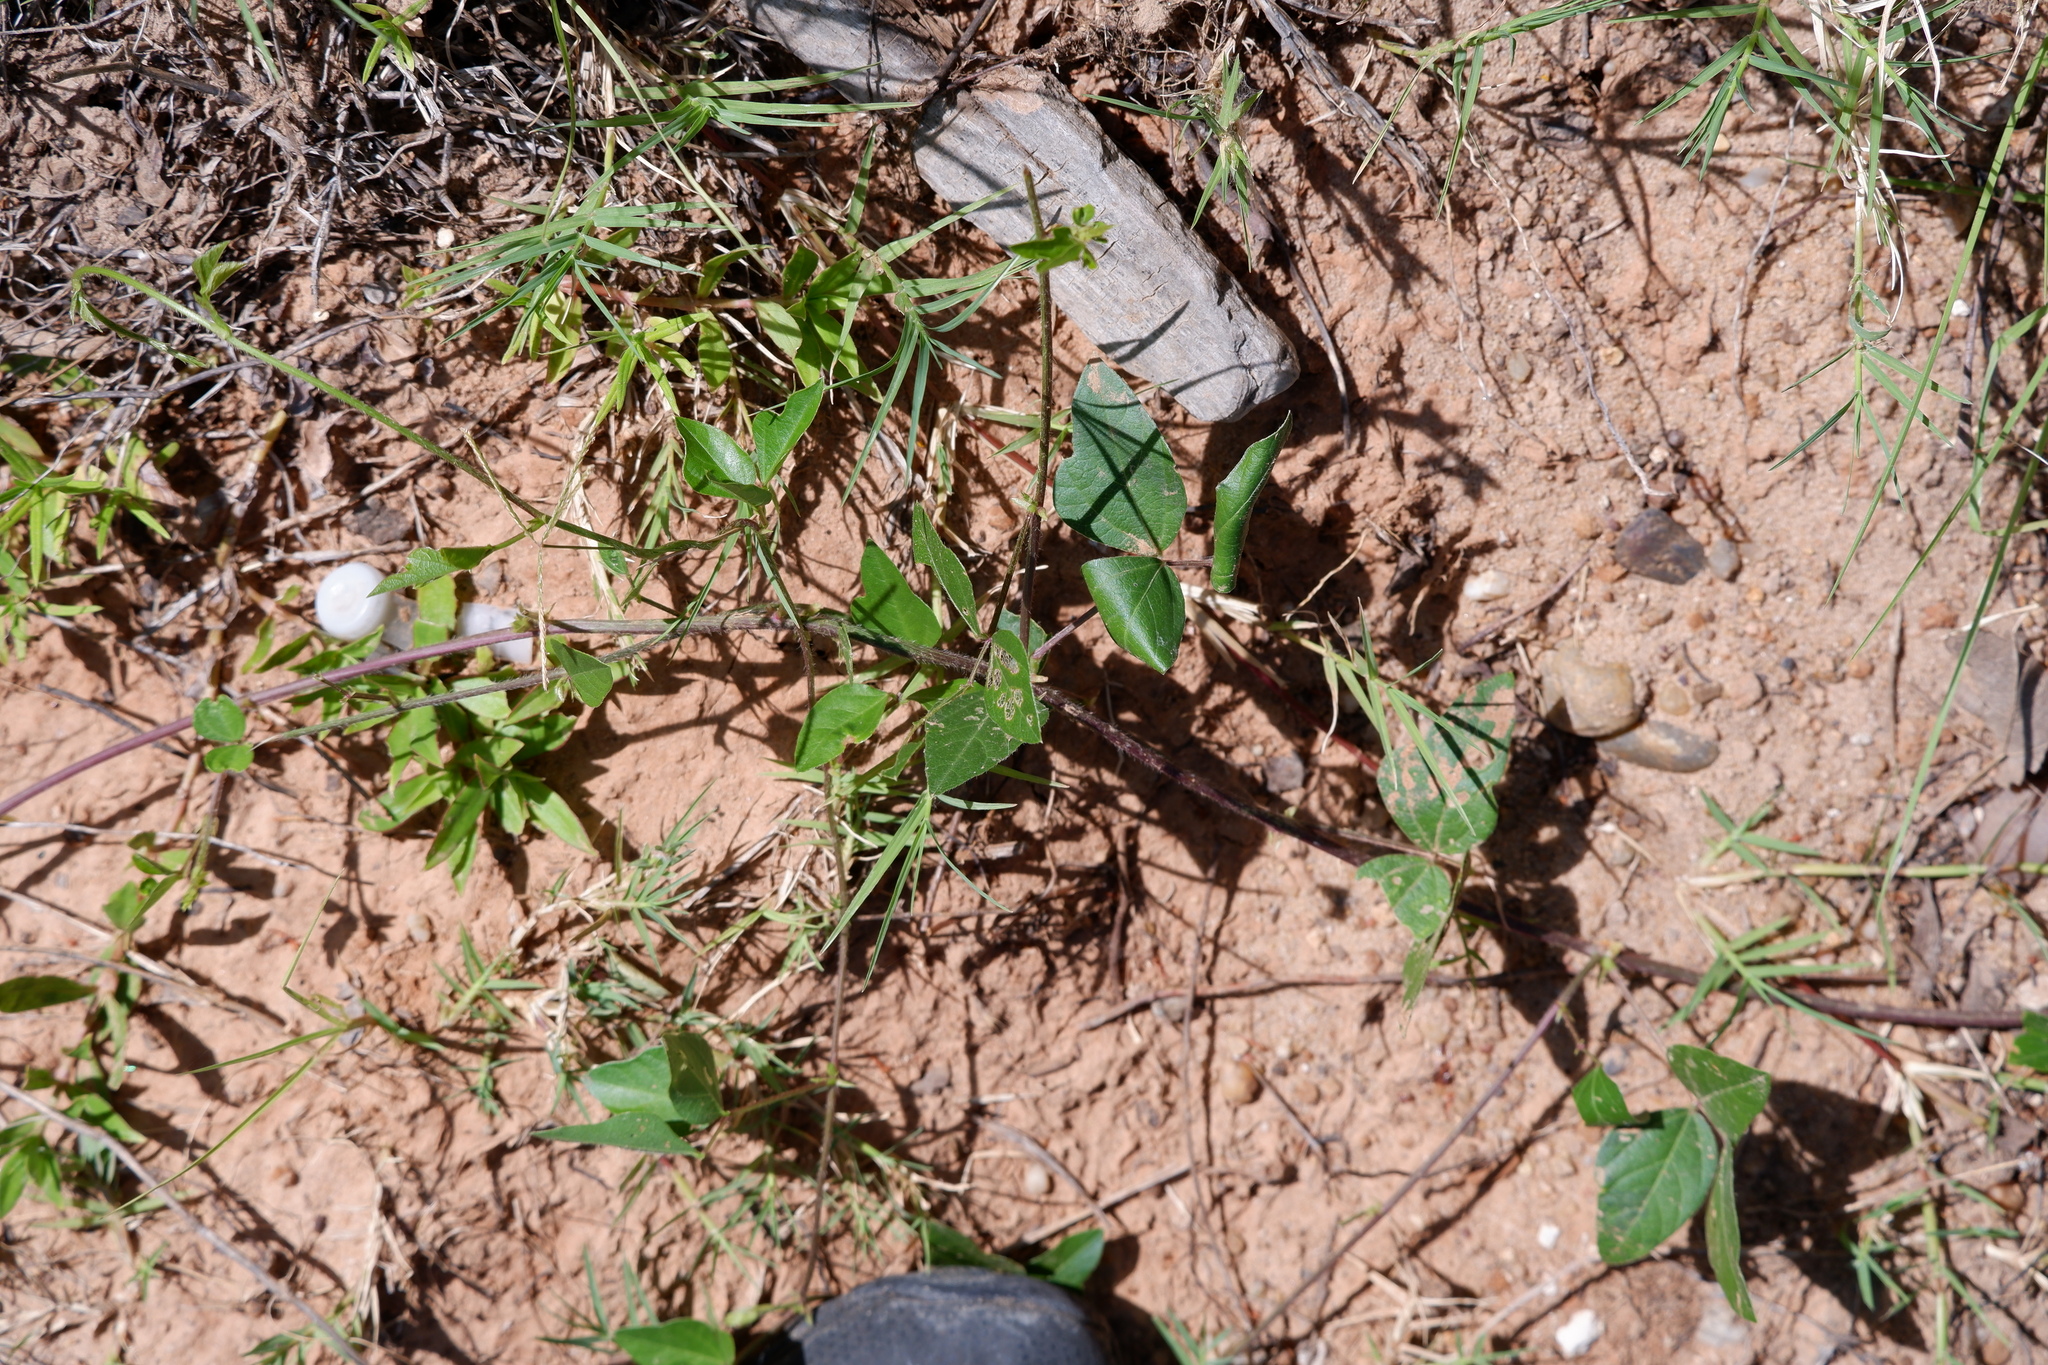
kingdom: Plantae
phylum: Tracheophyta
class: Magnoliopsida
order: Fabales
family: Fabaceae
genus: Strophostyles
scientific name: Strophostyles helvola
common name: Trailing wild bean
